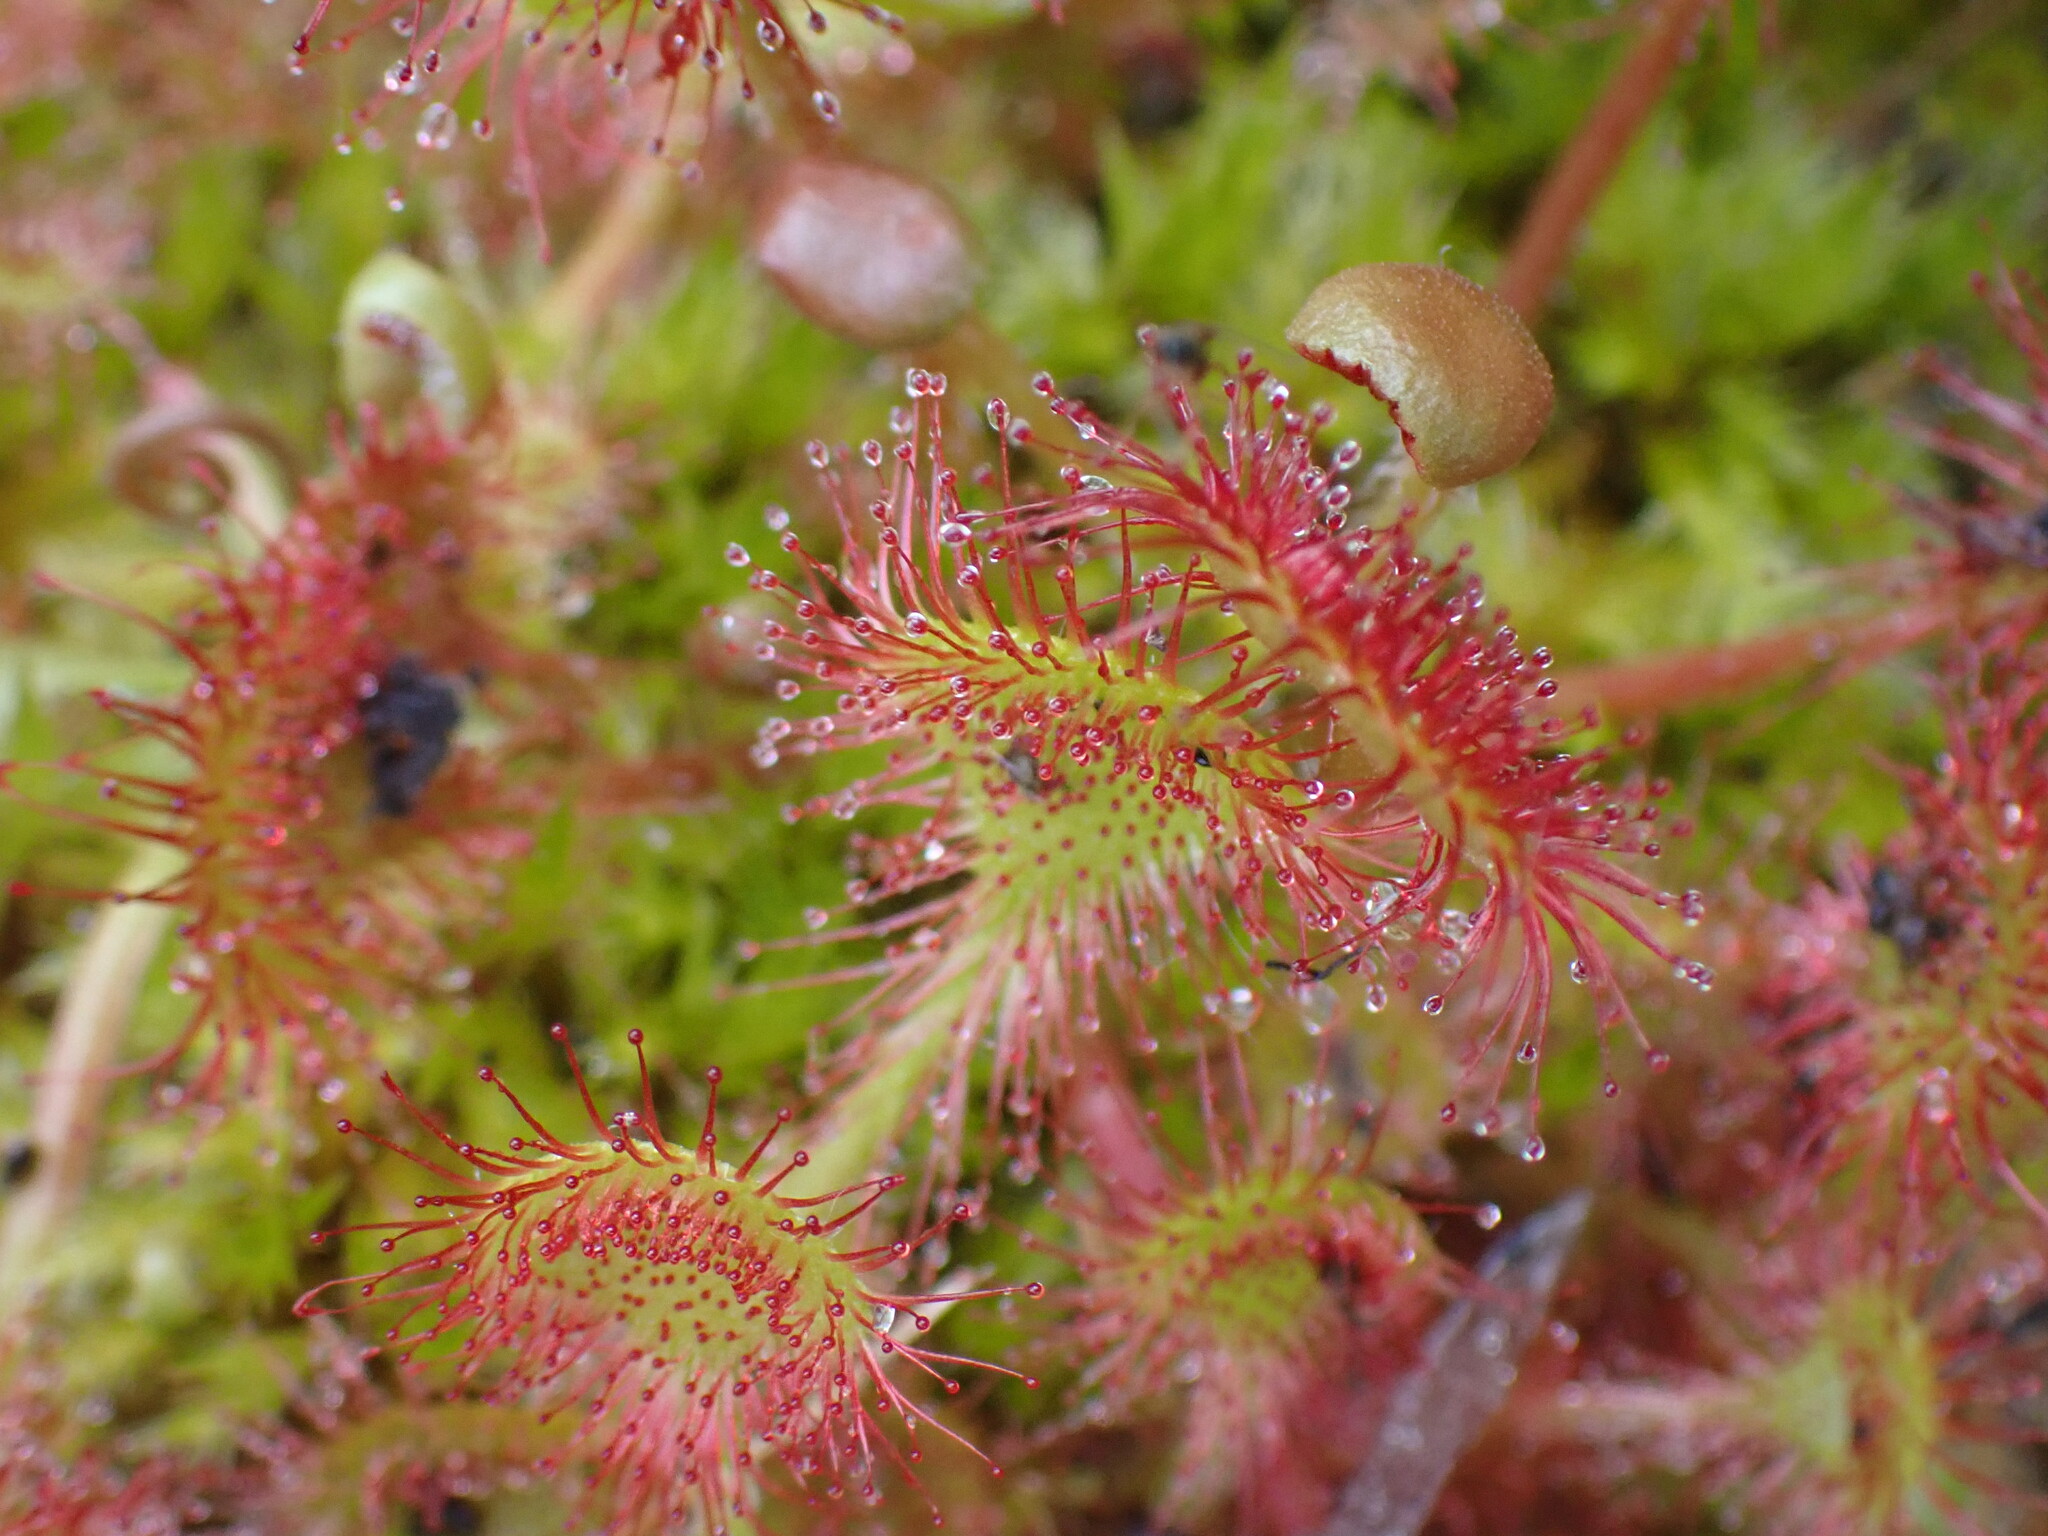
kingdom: Plantae
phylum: Tracheophyta
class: Magnoliopsida
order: Caryophyllales
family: Droseraceae
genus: Drosera
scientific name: Drosera rotundifolia
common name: Round-leaved sundew
